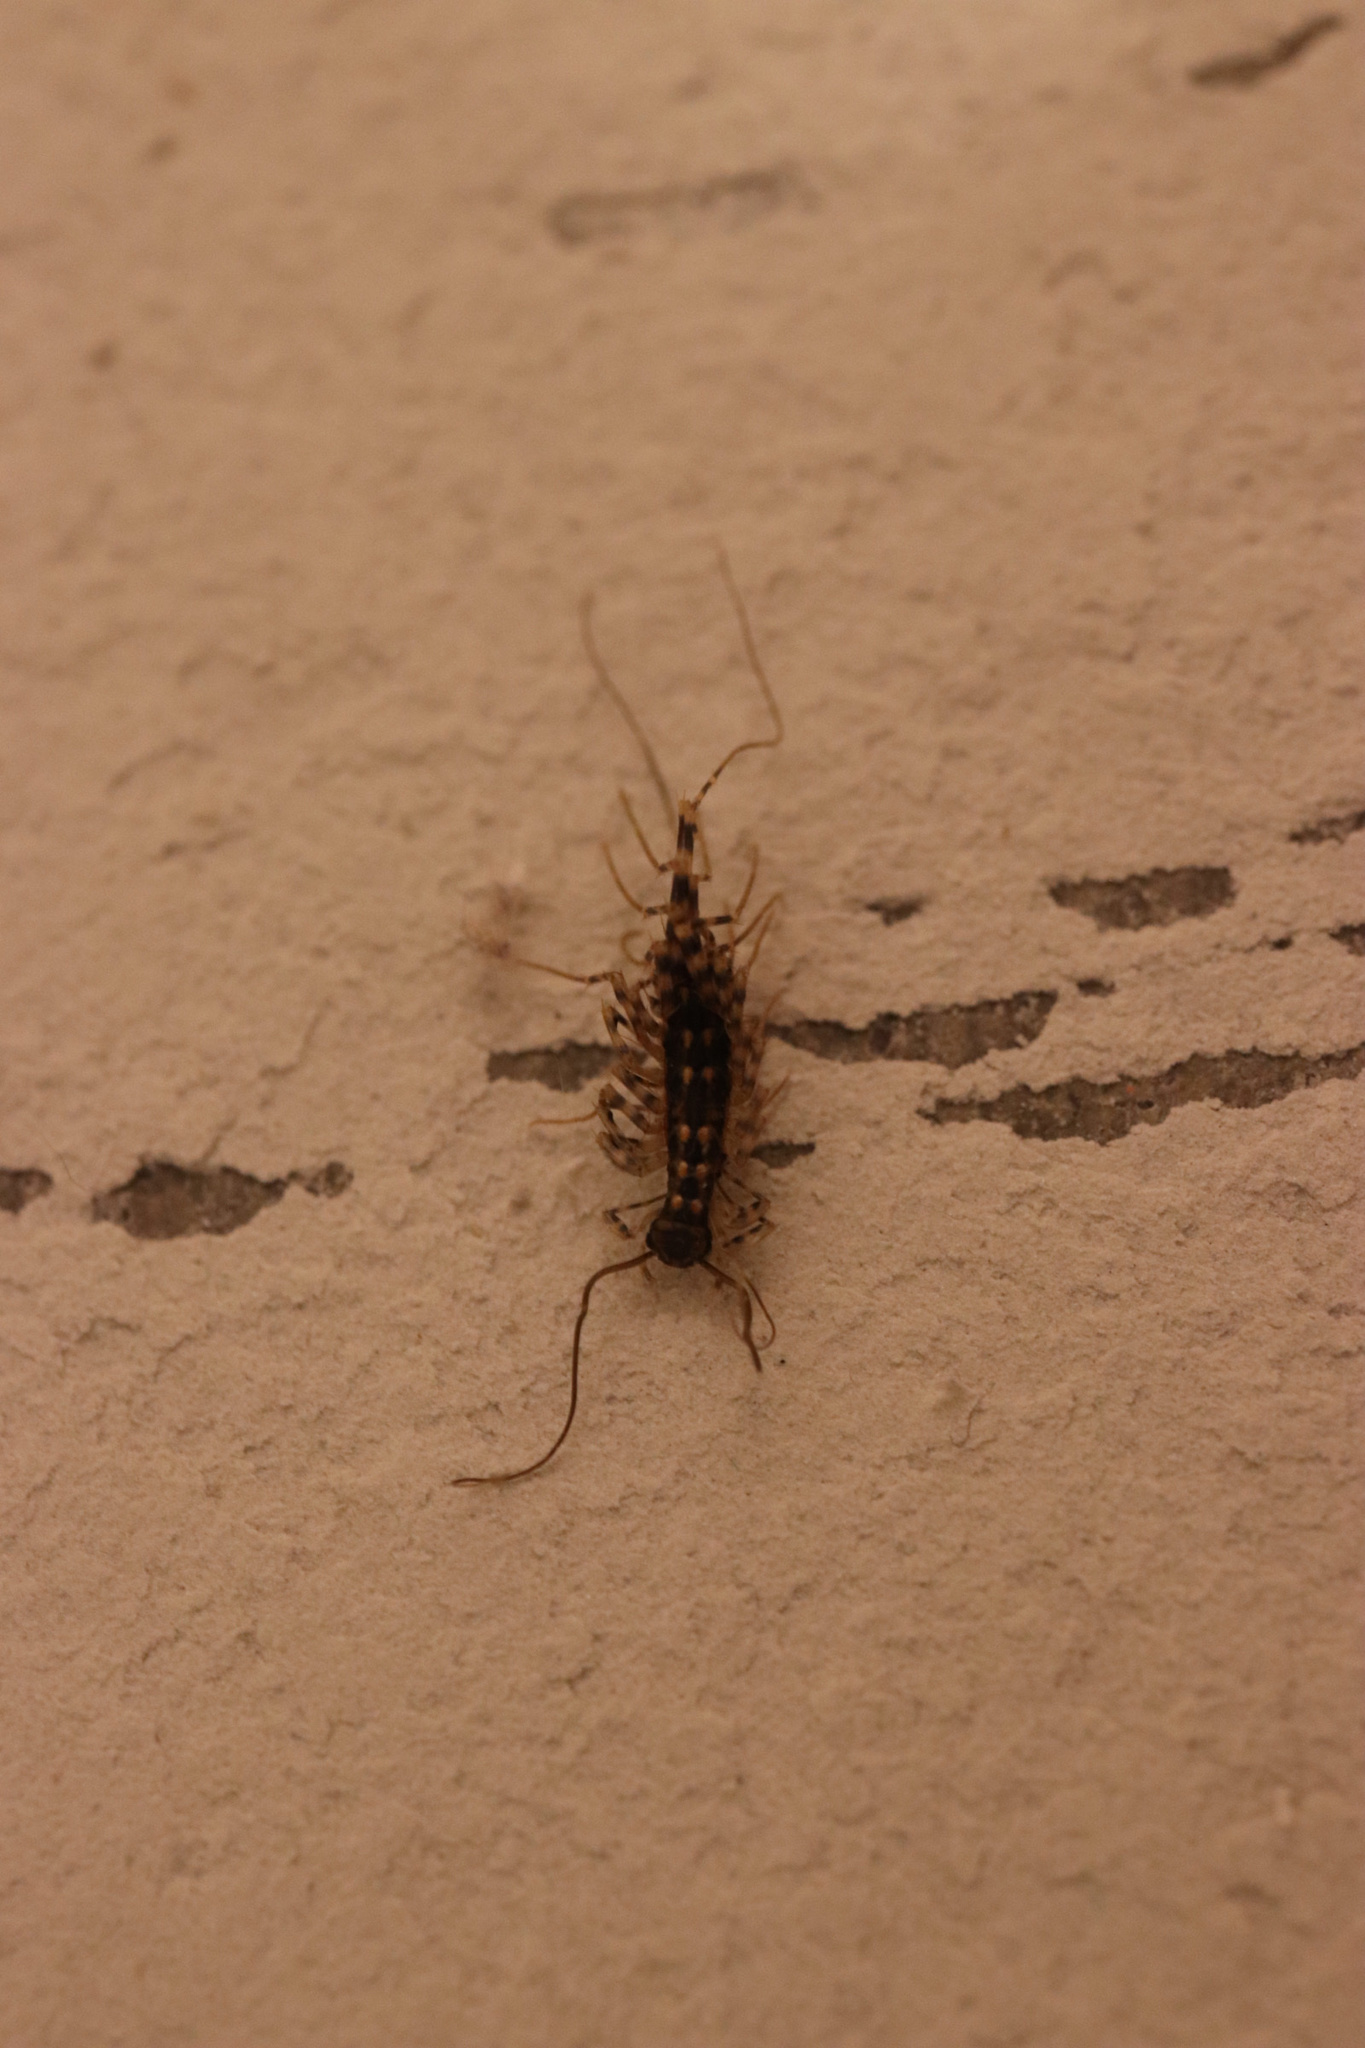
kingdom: Animalia
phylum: Arthropoda
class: Chilopoda
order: Scutigeromorpha
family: Scutigeridae
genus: Scutigera
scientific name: Scutigera coleoptrata
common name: House centipede
